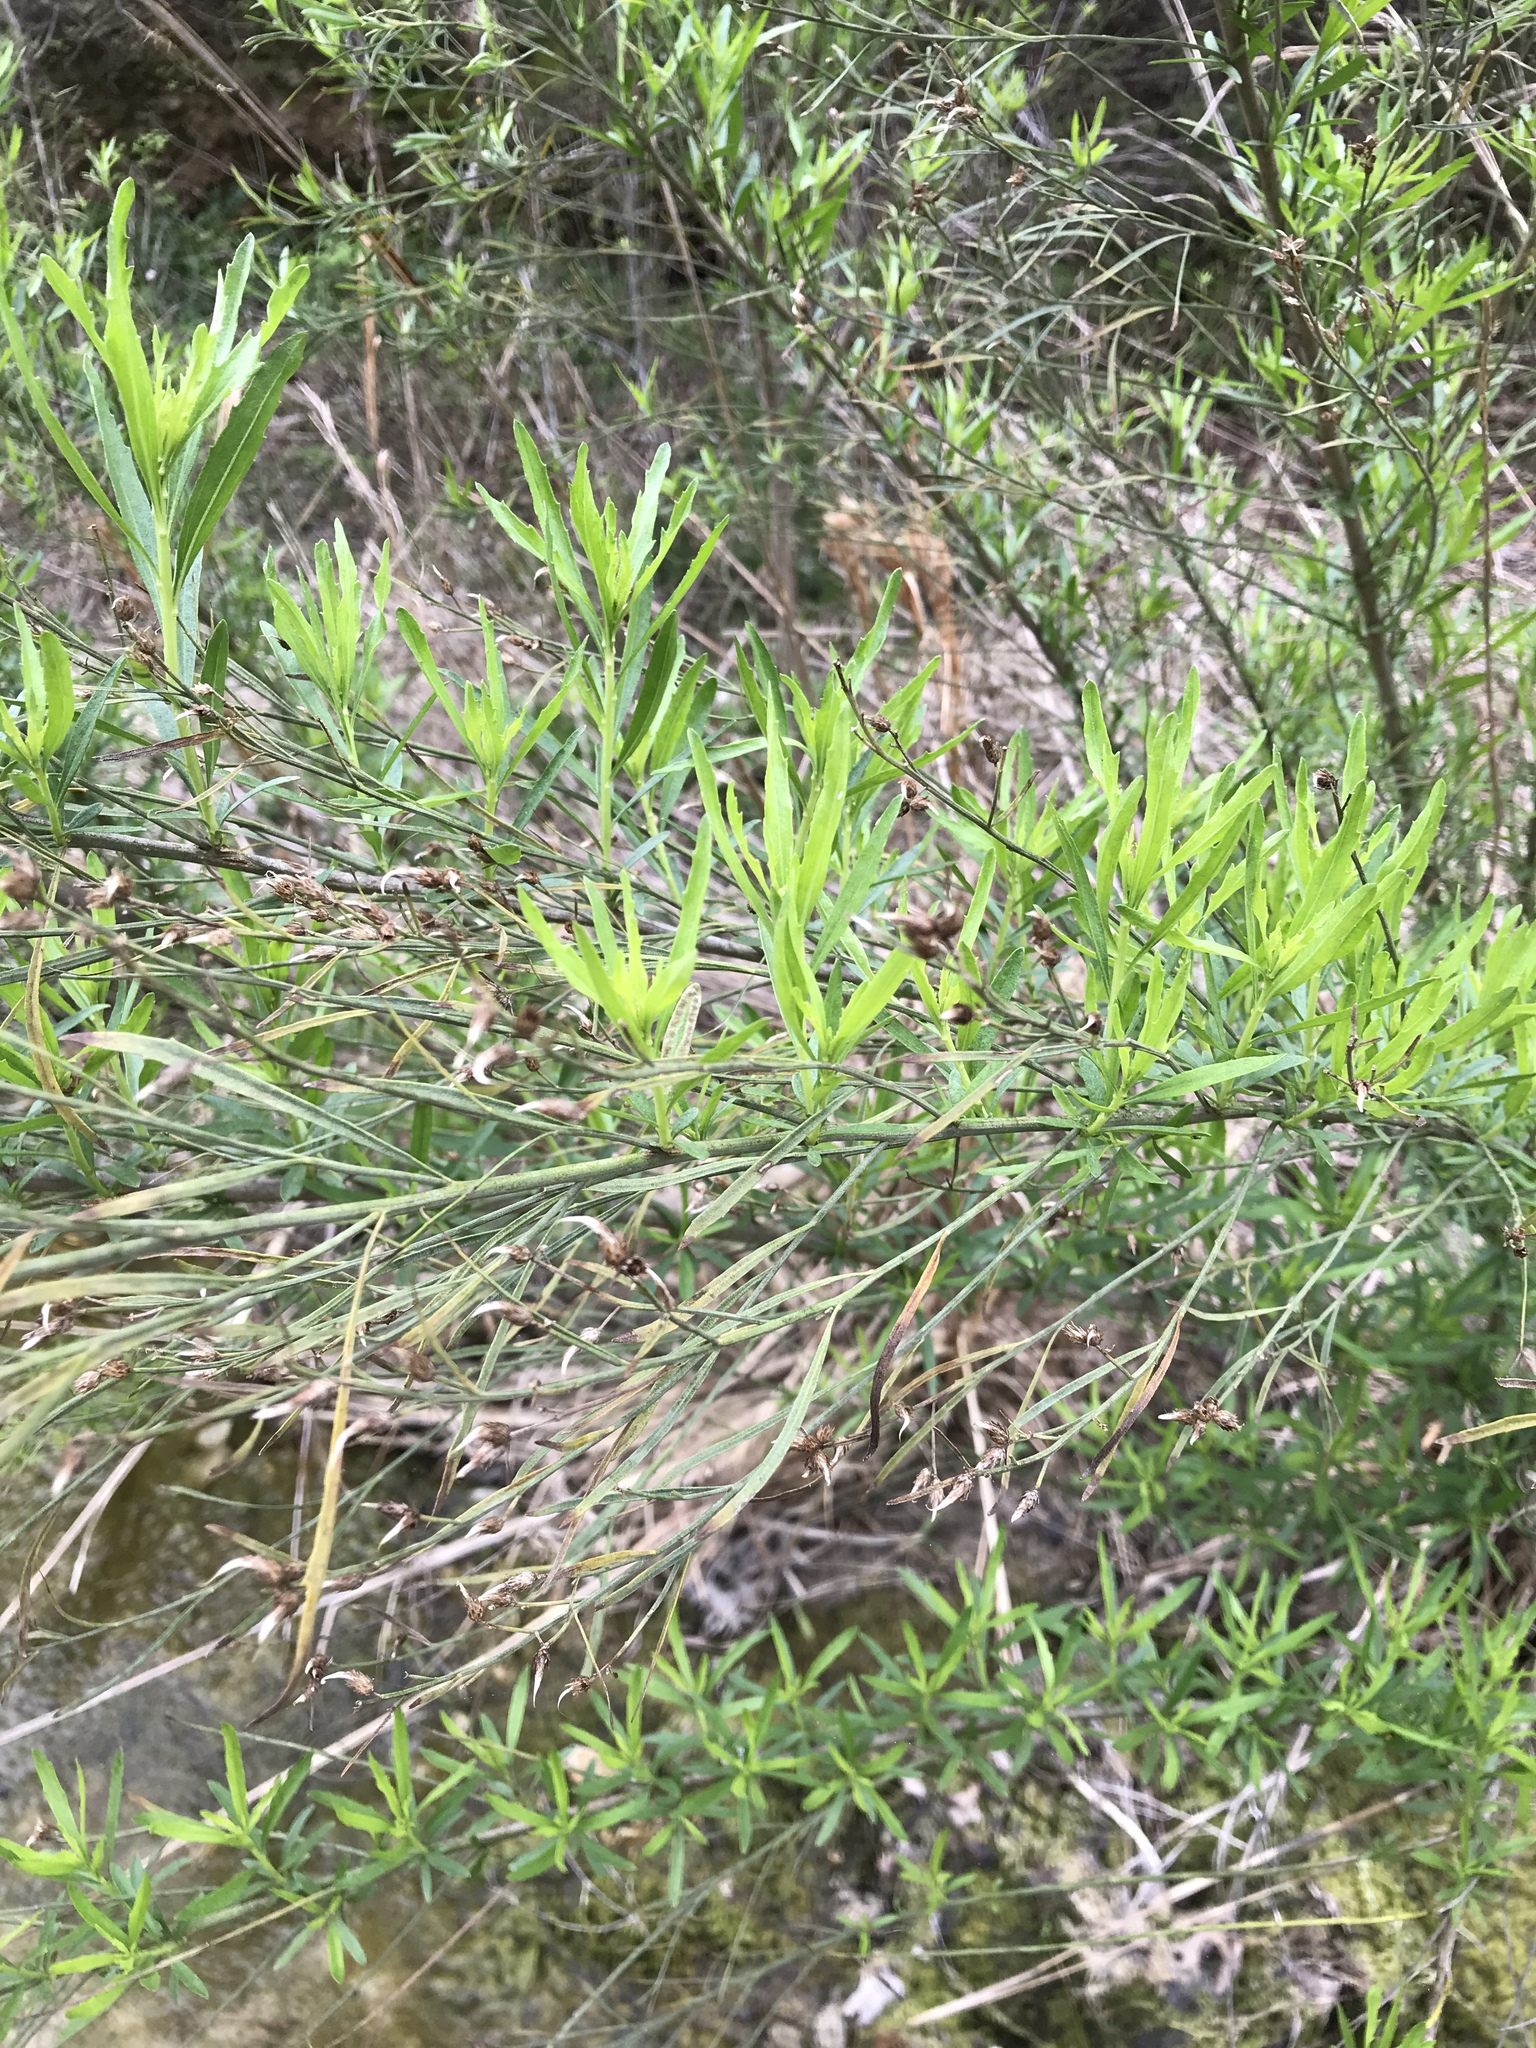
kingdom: Plantae
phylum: Tracheophyta
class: Magnoliopsida
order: Asterales
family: Asteraceae
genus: Baccharis
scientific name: Baccharis neglecta
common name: Roosevelt-weed
